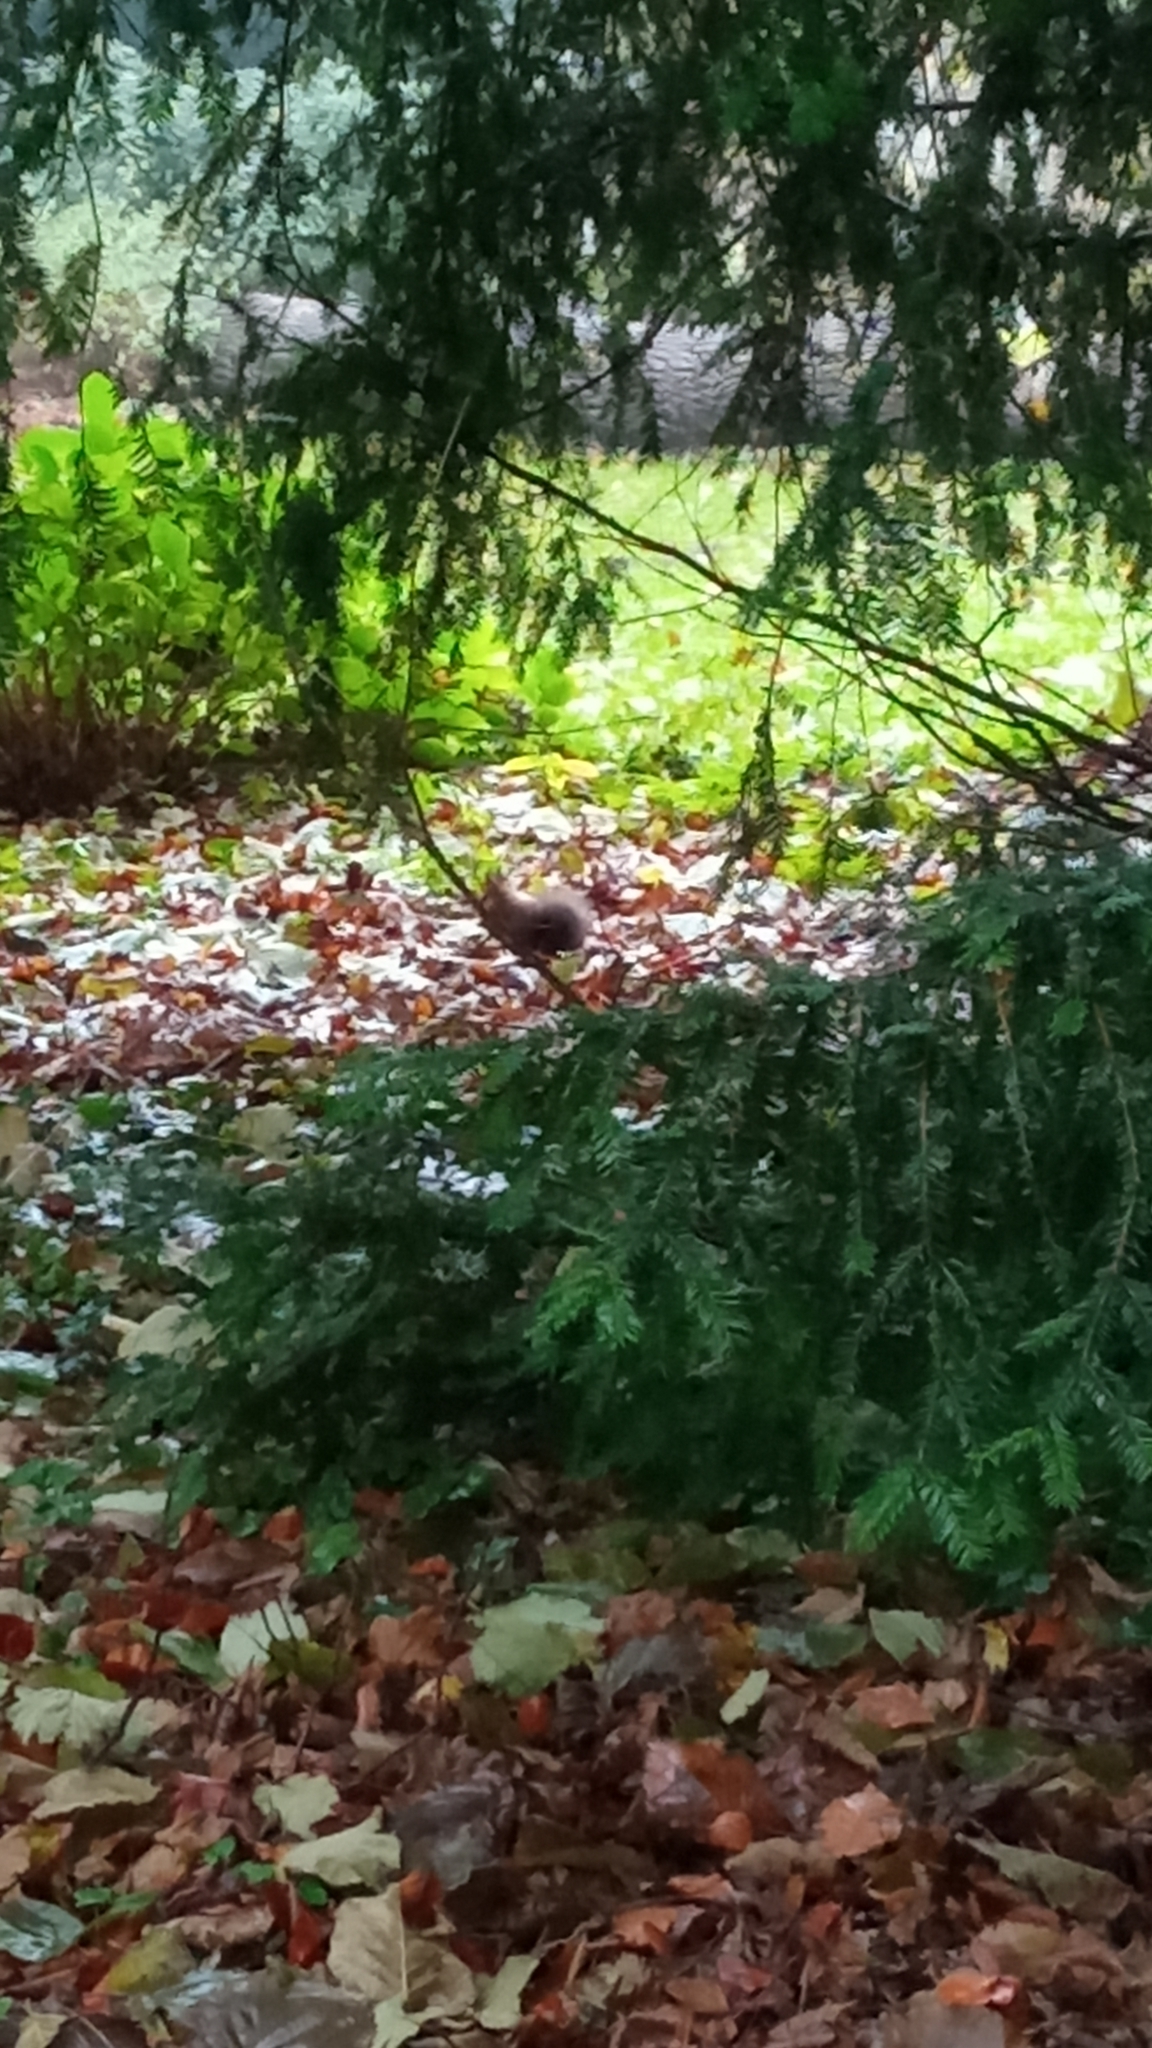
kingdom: Animalia
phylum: Chordata
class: Mammalia
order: Rodentia
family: Sciuridae
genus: Sciurus
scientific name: Sciurus vulgaris
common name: Eurasian red squirrel
